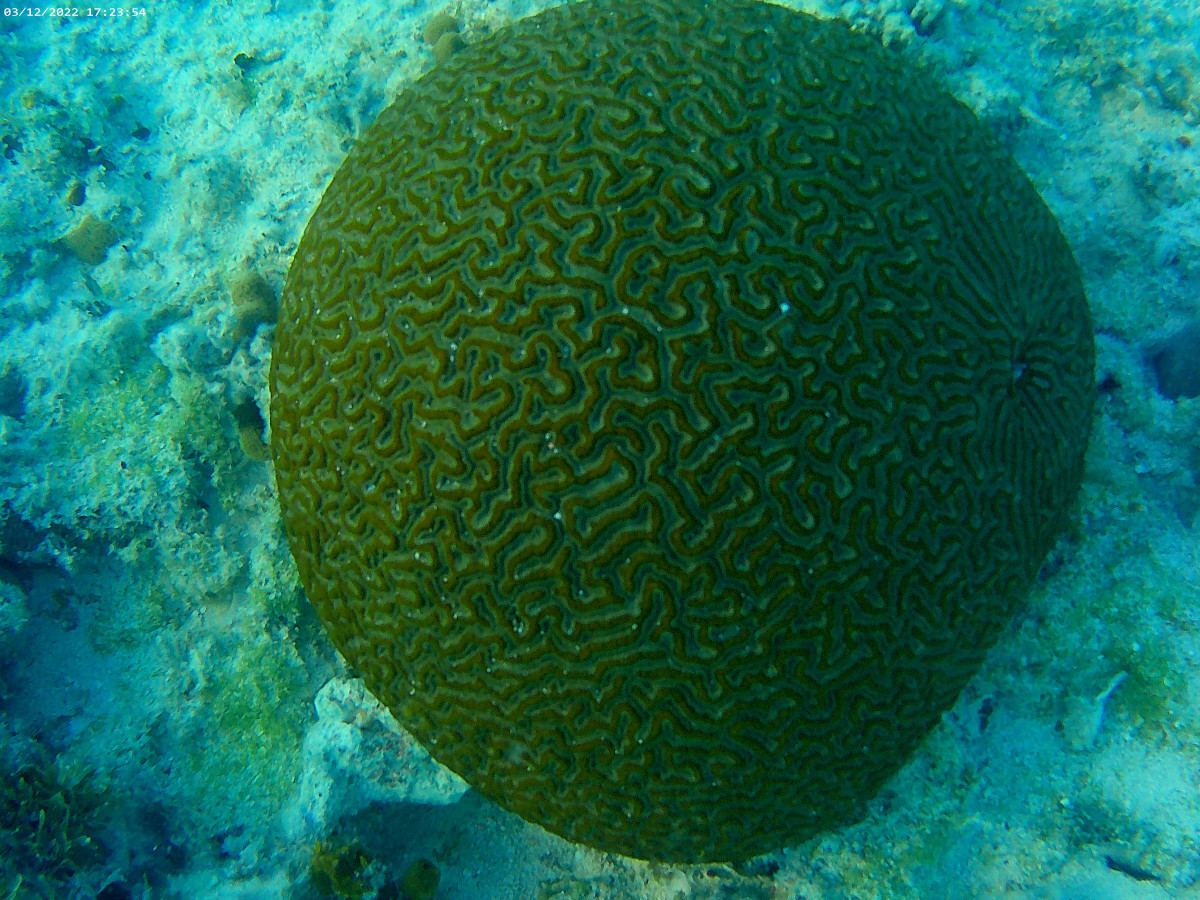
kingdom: Animalia
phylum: Cnidaria
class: Anthozoa
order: Scleractinia
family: Faviidae
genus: Pseudodiploria
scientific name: Pseudodiploria strigosa
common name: Symmetrical brain coral
